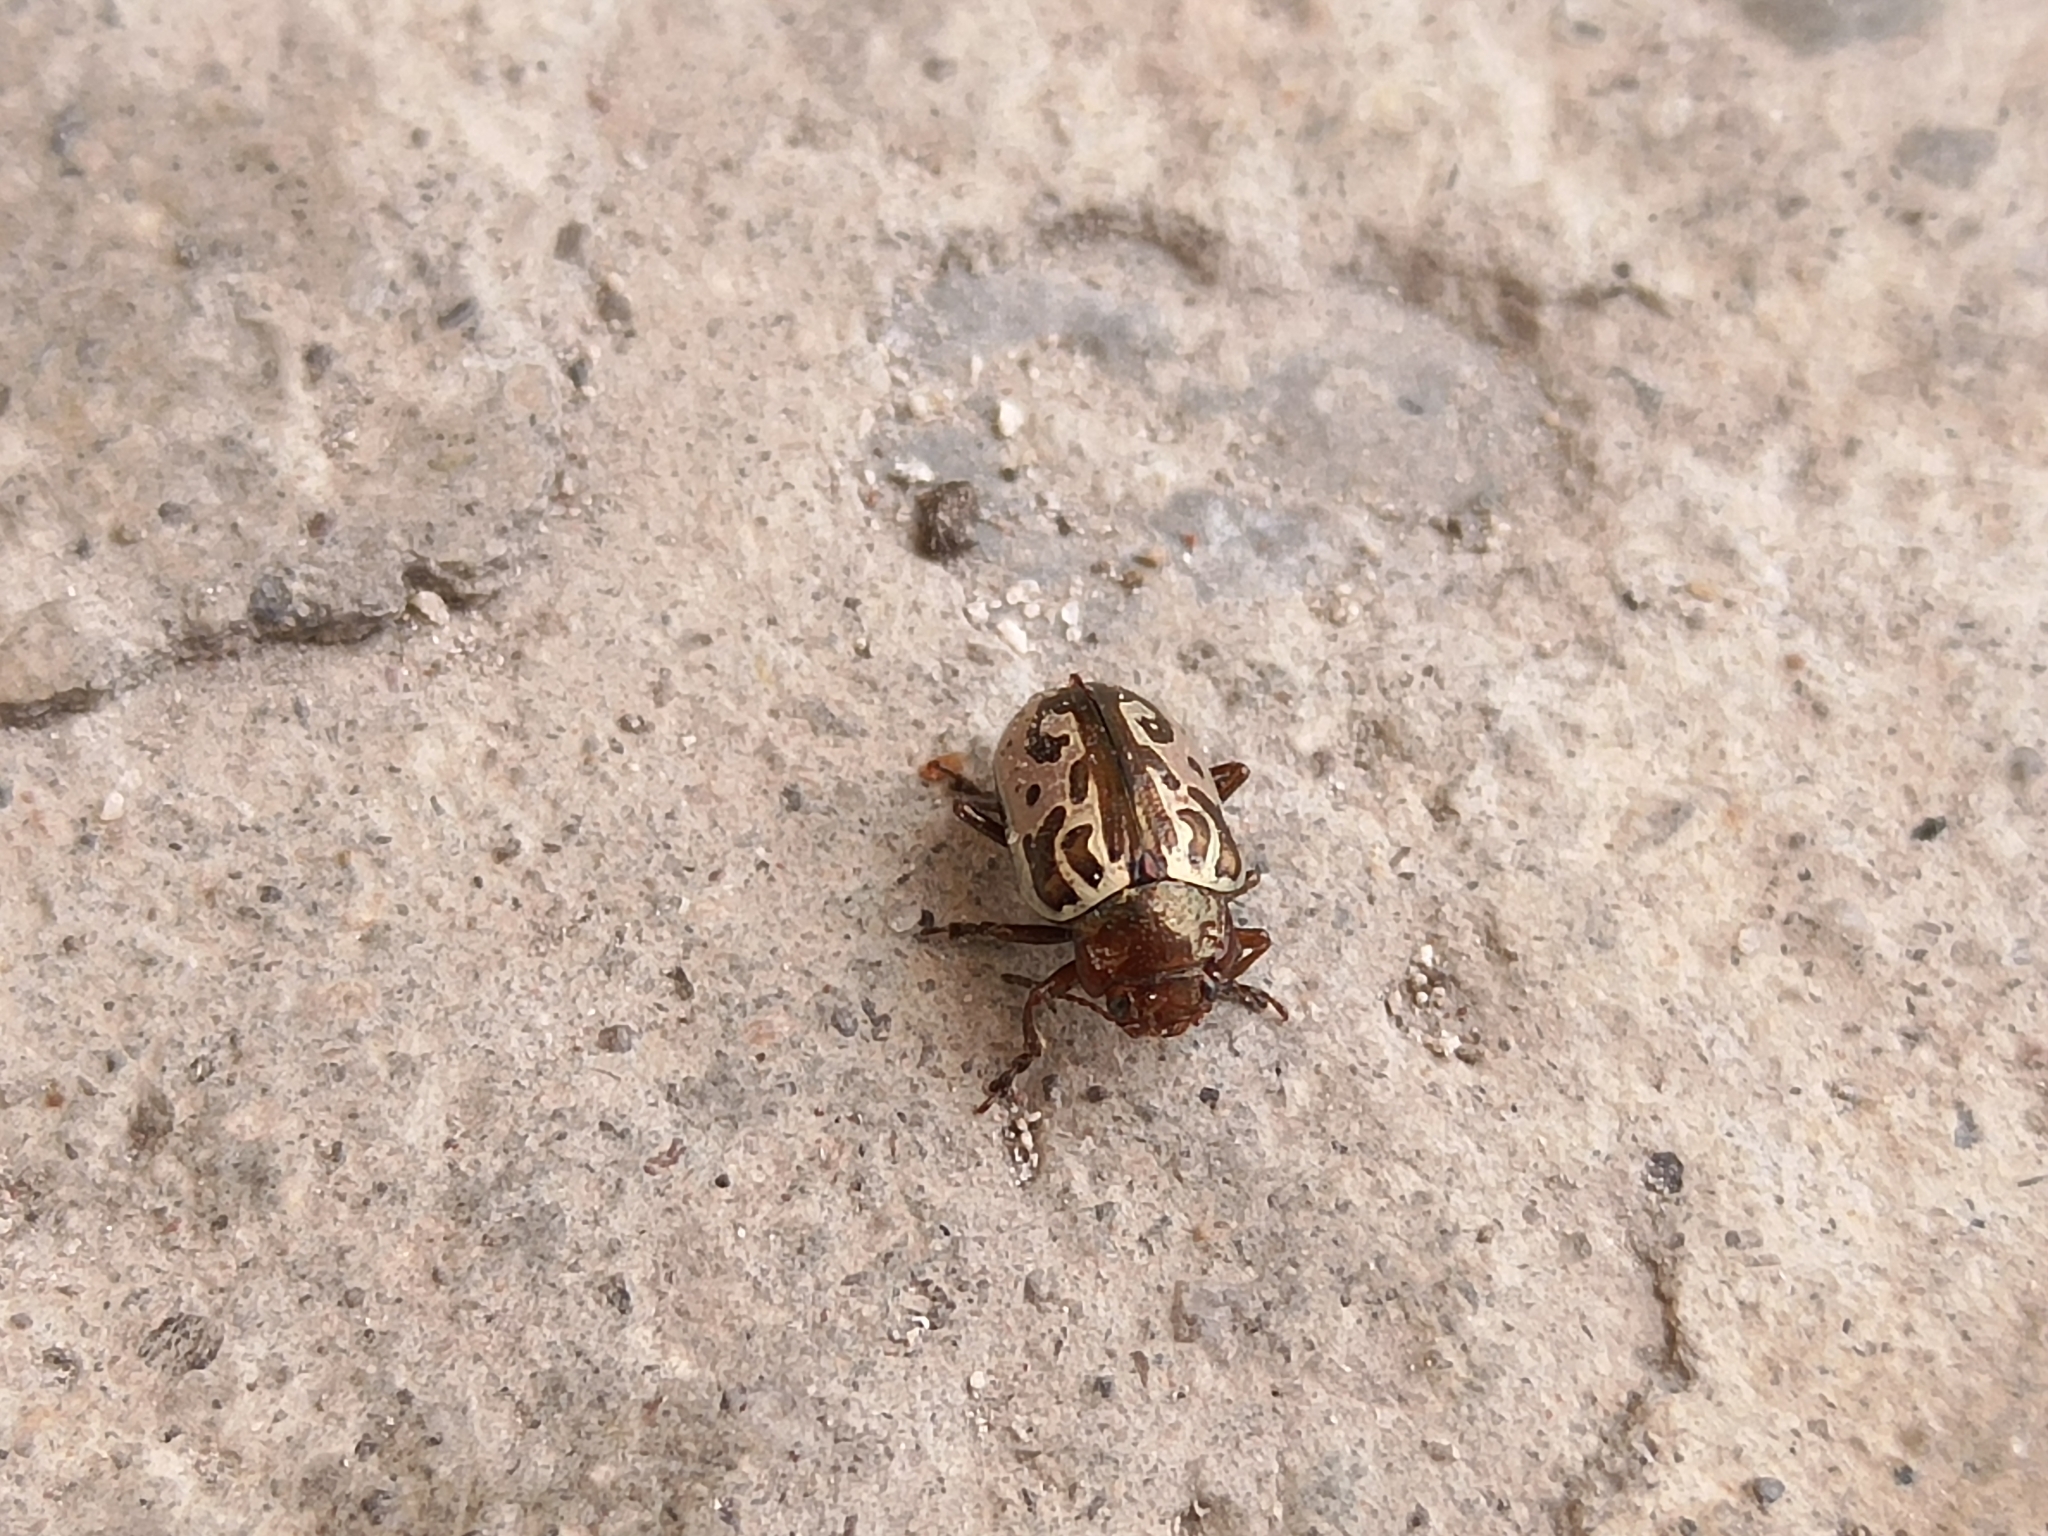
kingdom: Animalia
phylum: Arthropoda
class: Insecta
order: Coleoptera
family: Chrysomelidae
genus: Calligrapha
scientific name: Calligrapha
